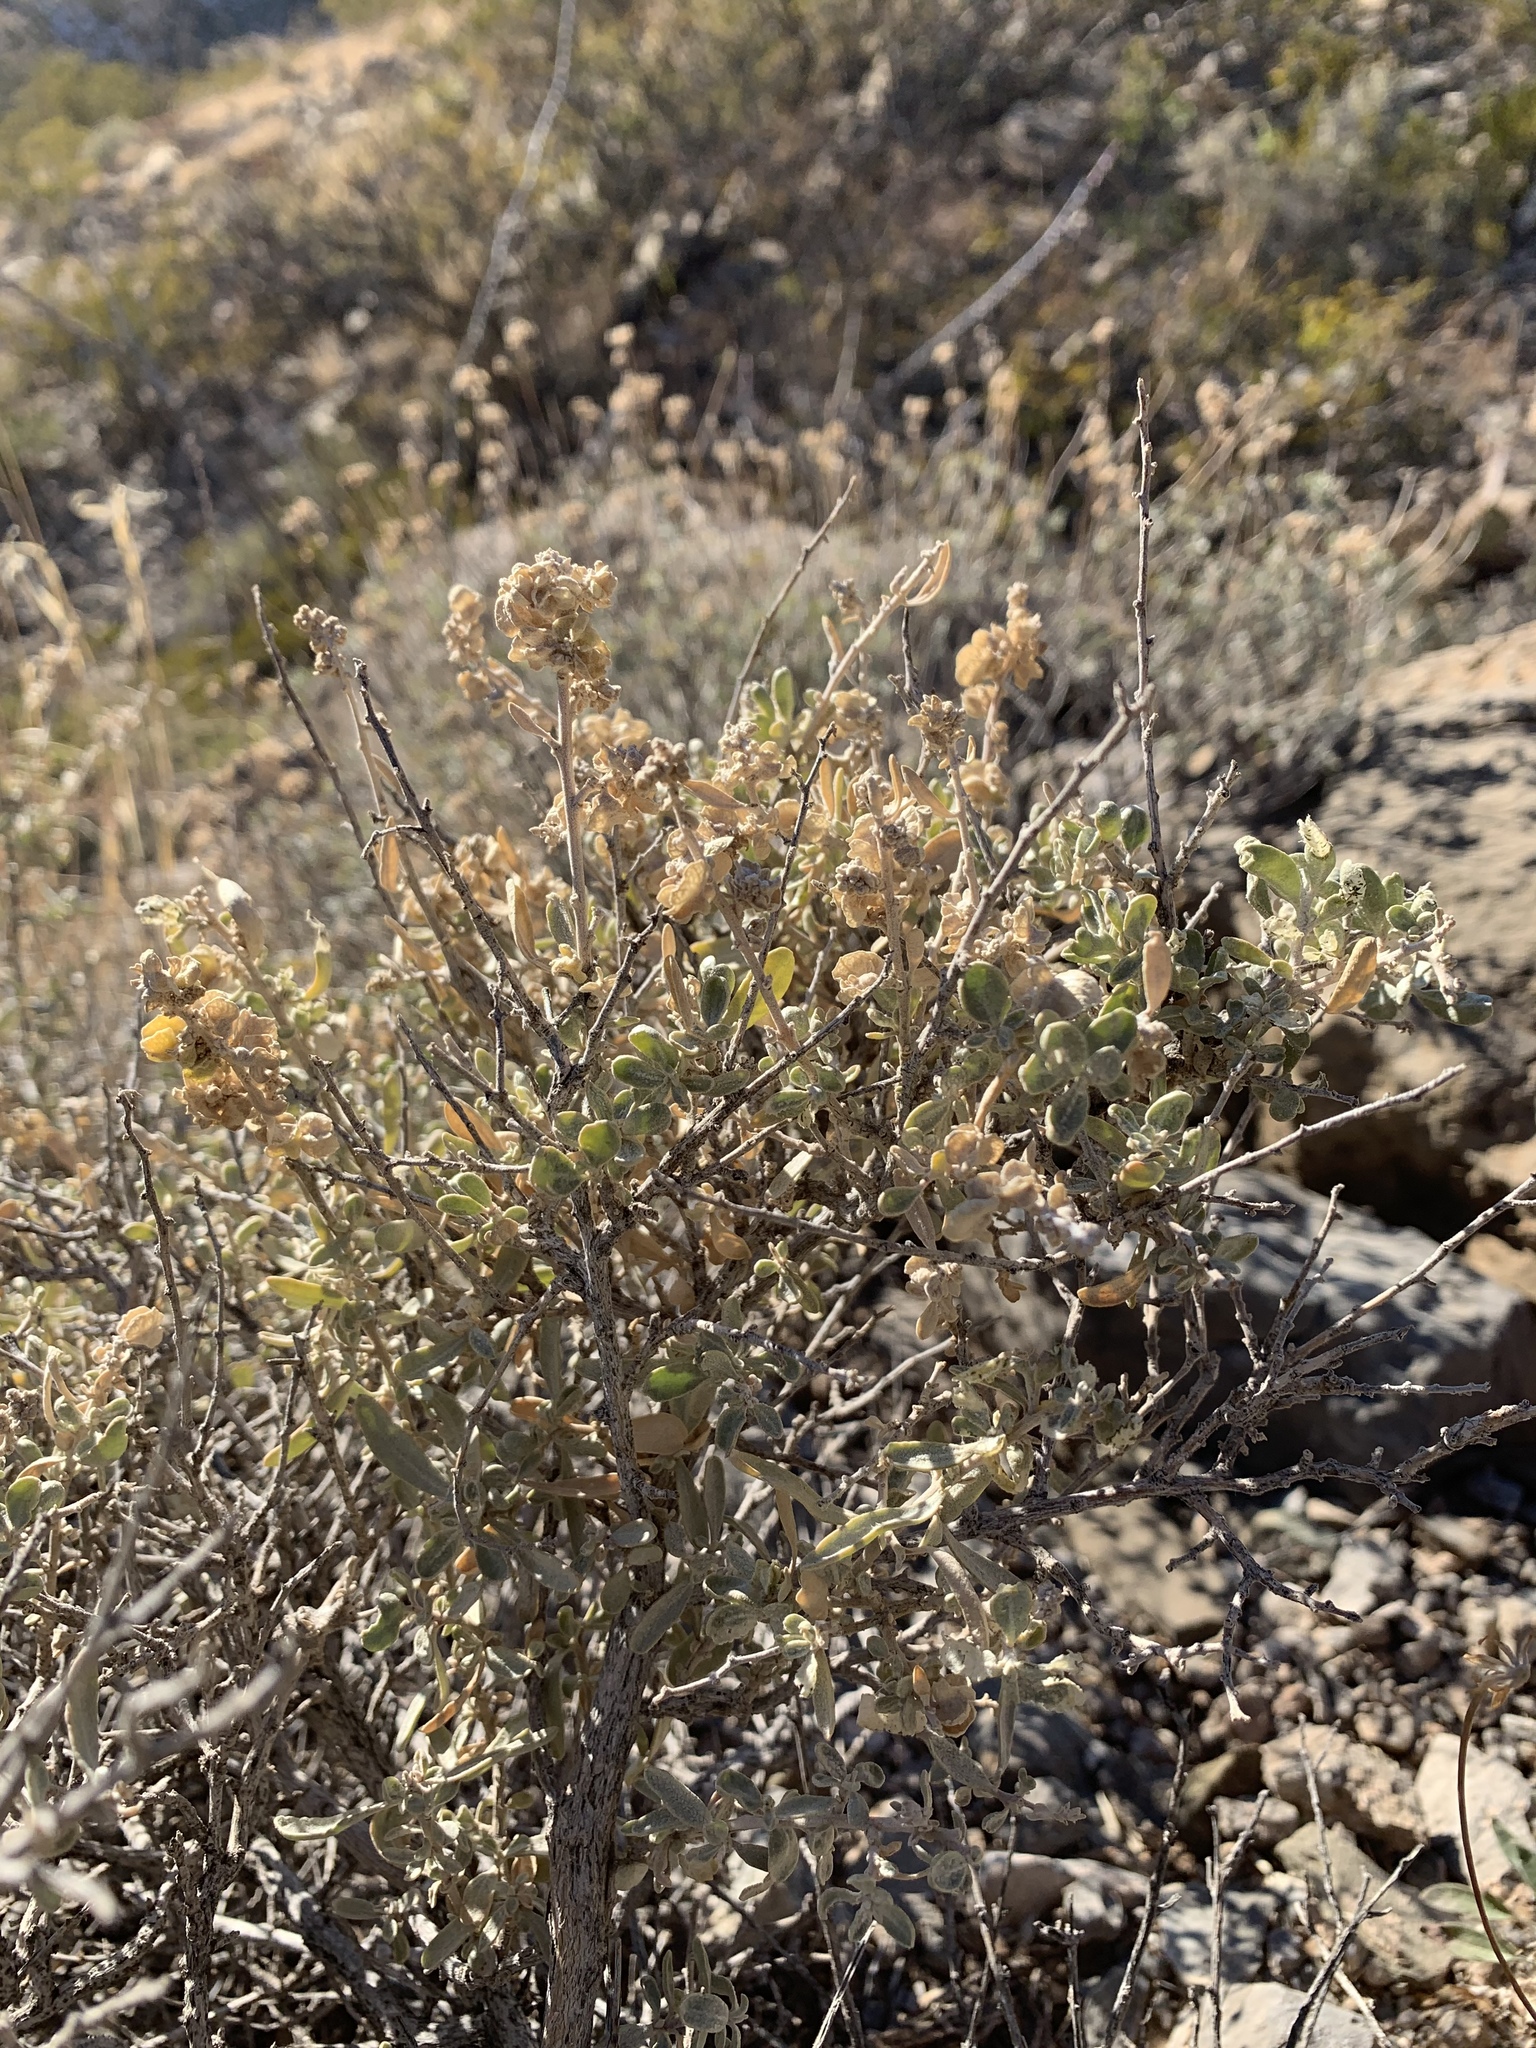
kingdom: Plantae
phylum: Tracheophyta
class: Magnoliopsida
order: Caryophyllales
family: Amaranthaceae
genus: Atriplex
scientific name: Atriplex canescens
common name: Four-wing saltbush
